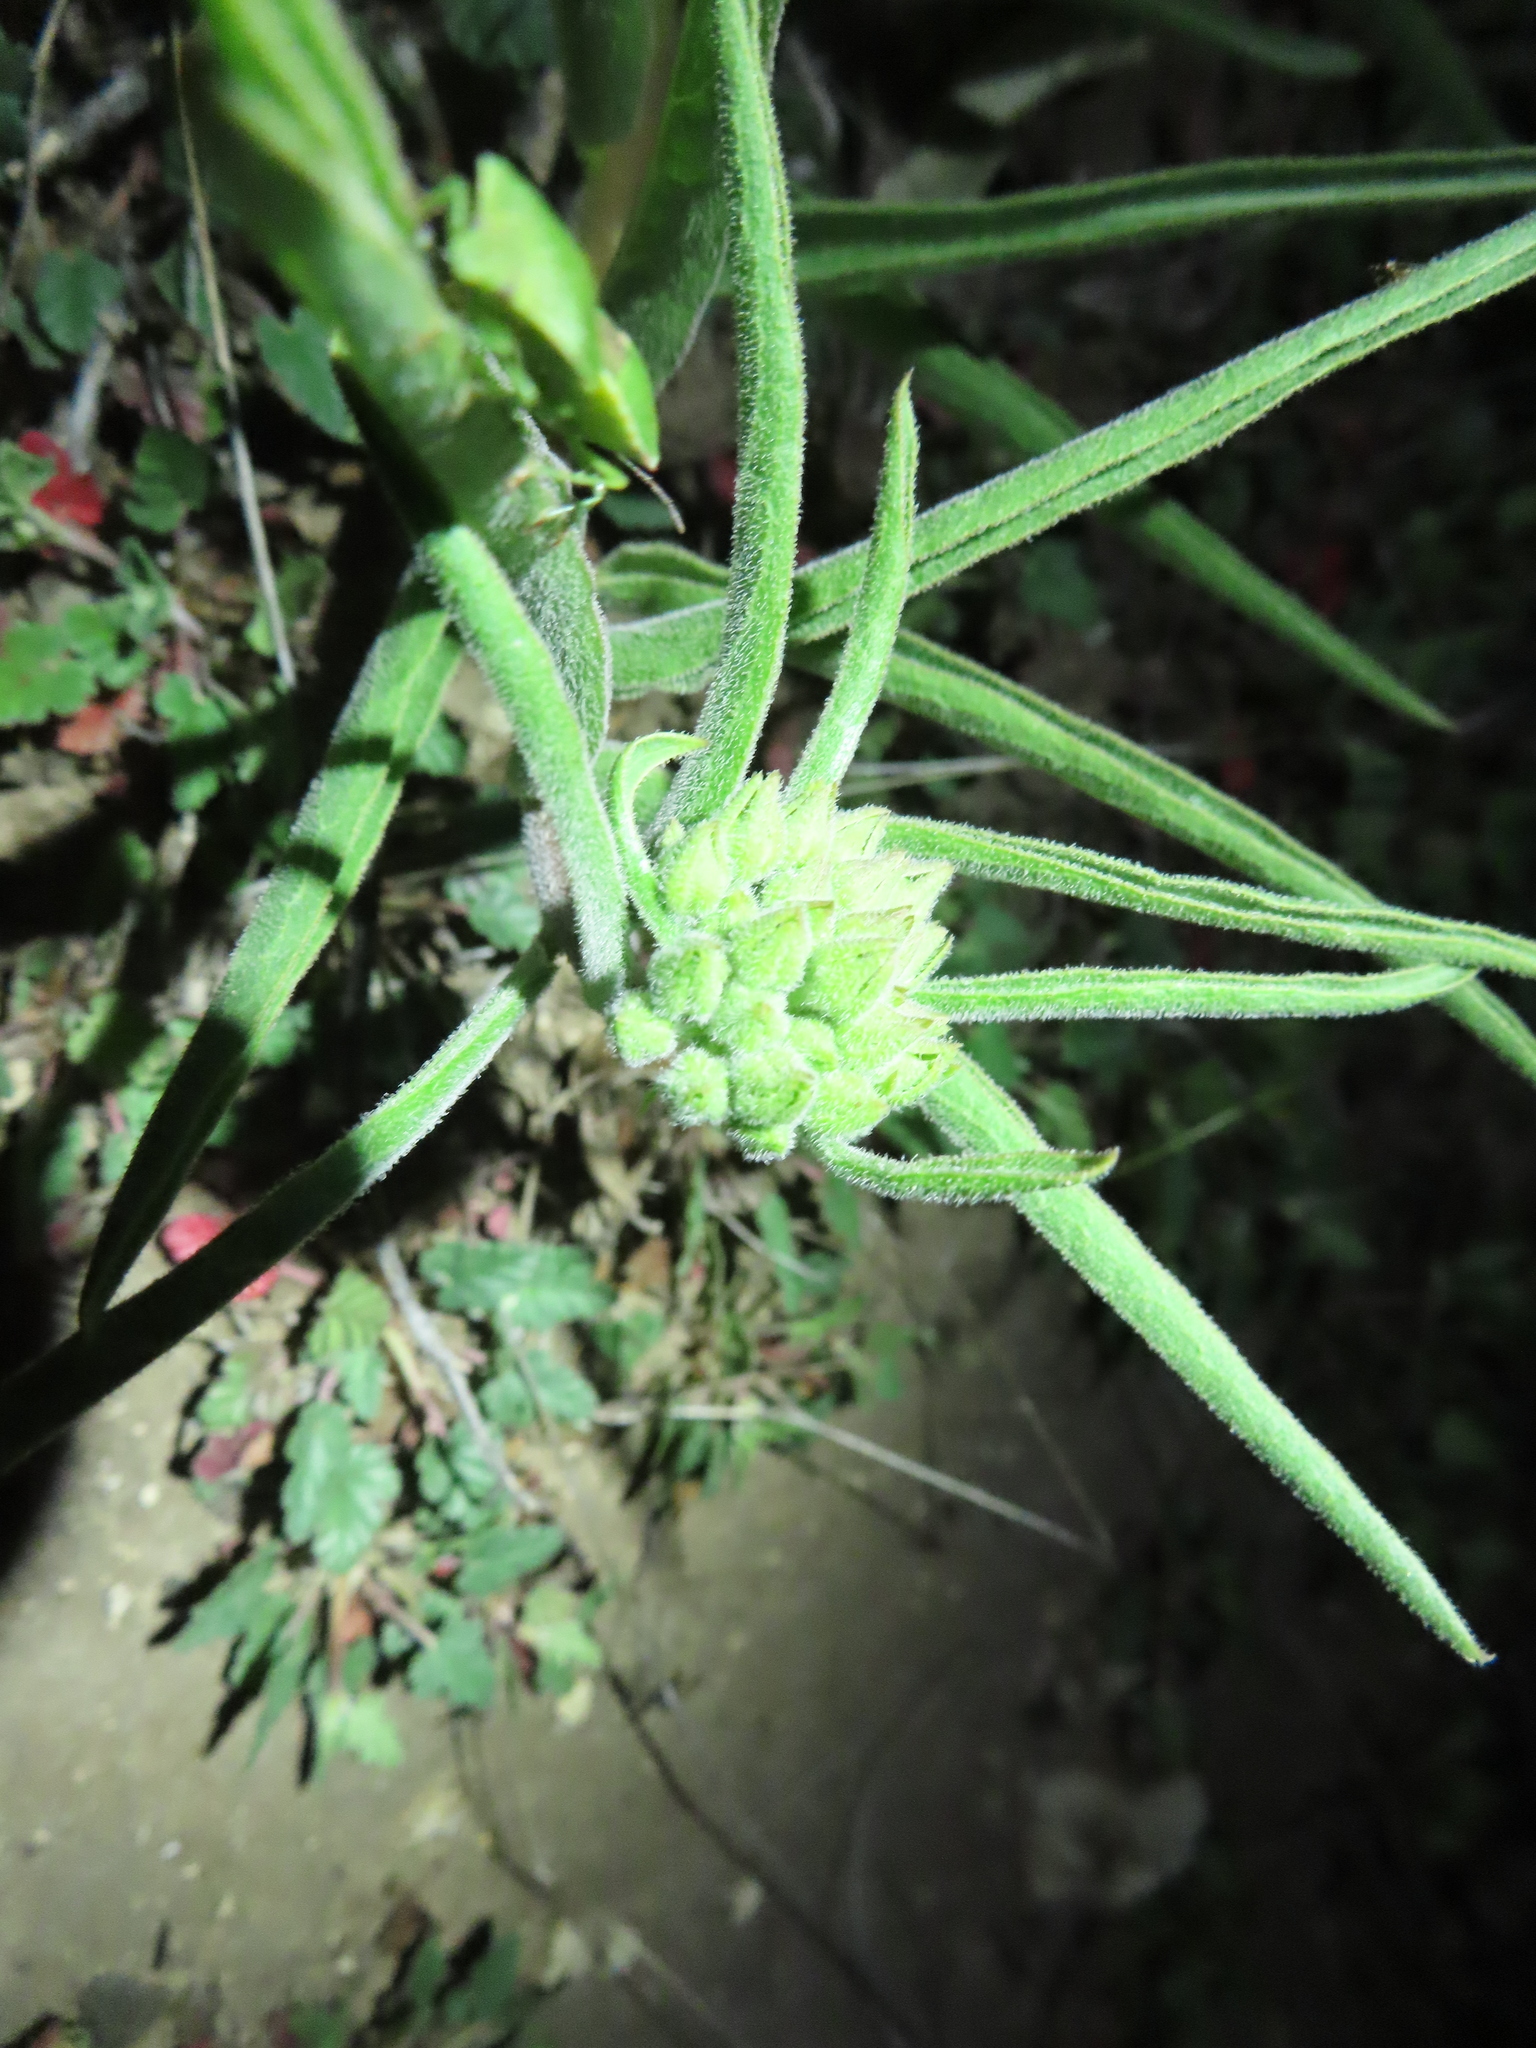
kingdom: Plantae
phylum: Tracheophyta
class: Magnoliopsida
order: Gentianales
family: Apocynaceae
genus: Asclepias
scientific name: Asclepias asperula
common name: Antelope horns
